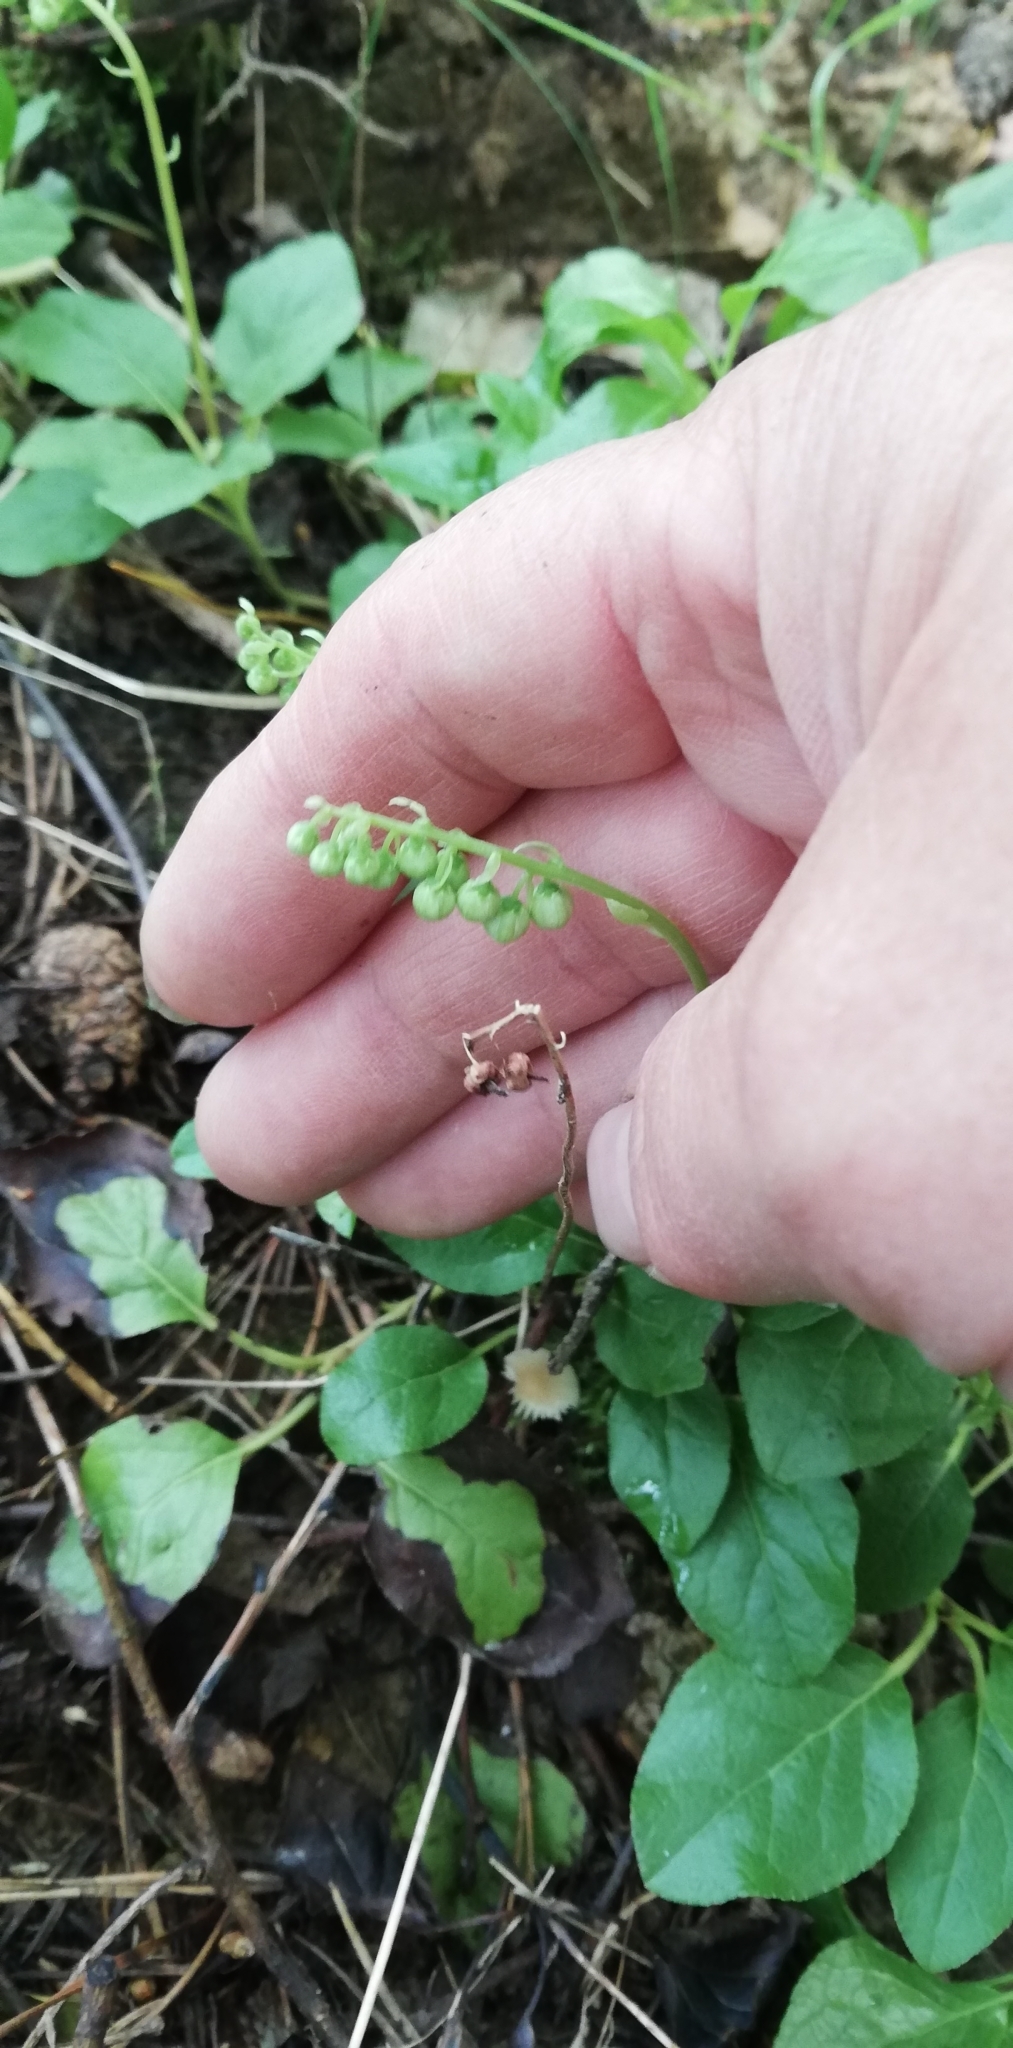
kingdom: Plantae
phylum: Tracheophyta
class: Magnoliopsida
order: Ericales
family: Ericaceae
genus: Orthilia
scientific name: Orthilia secunda
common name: One-sided orthilia
